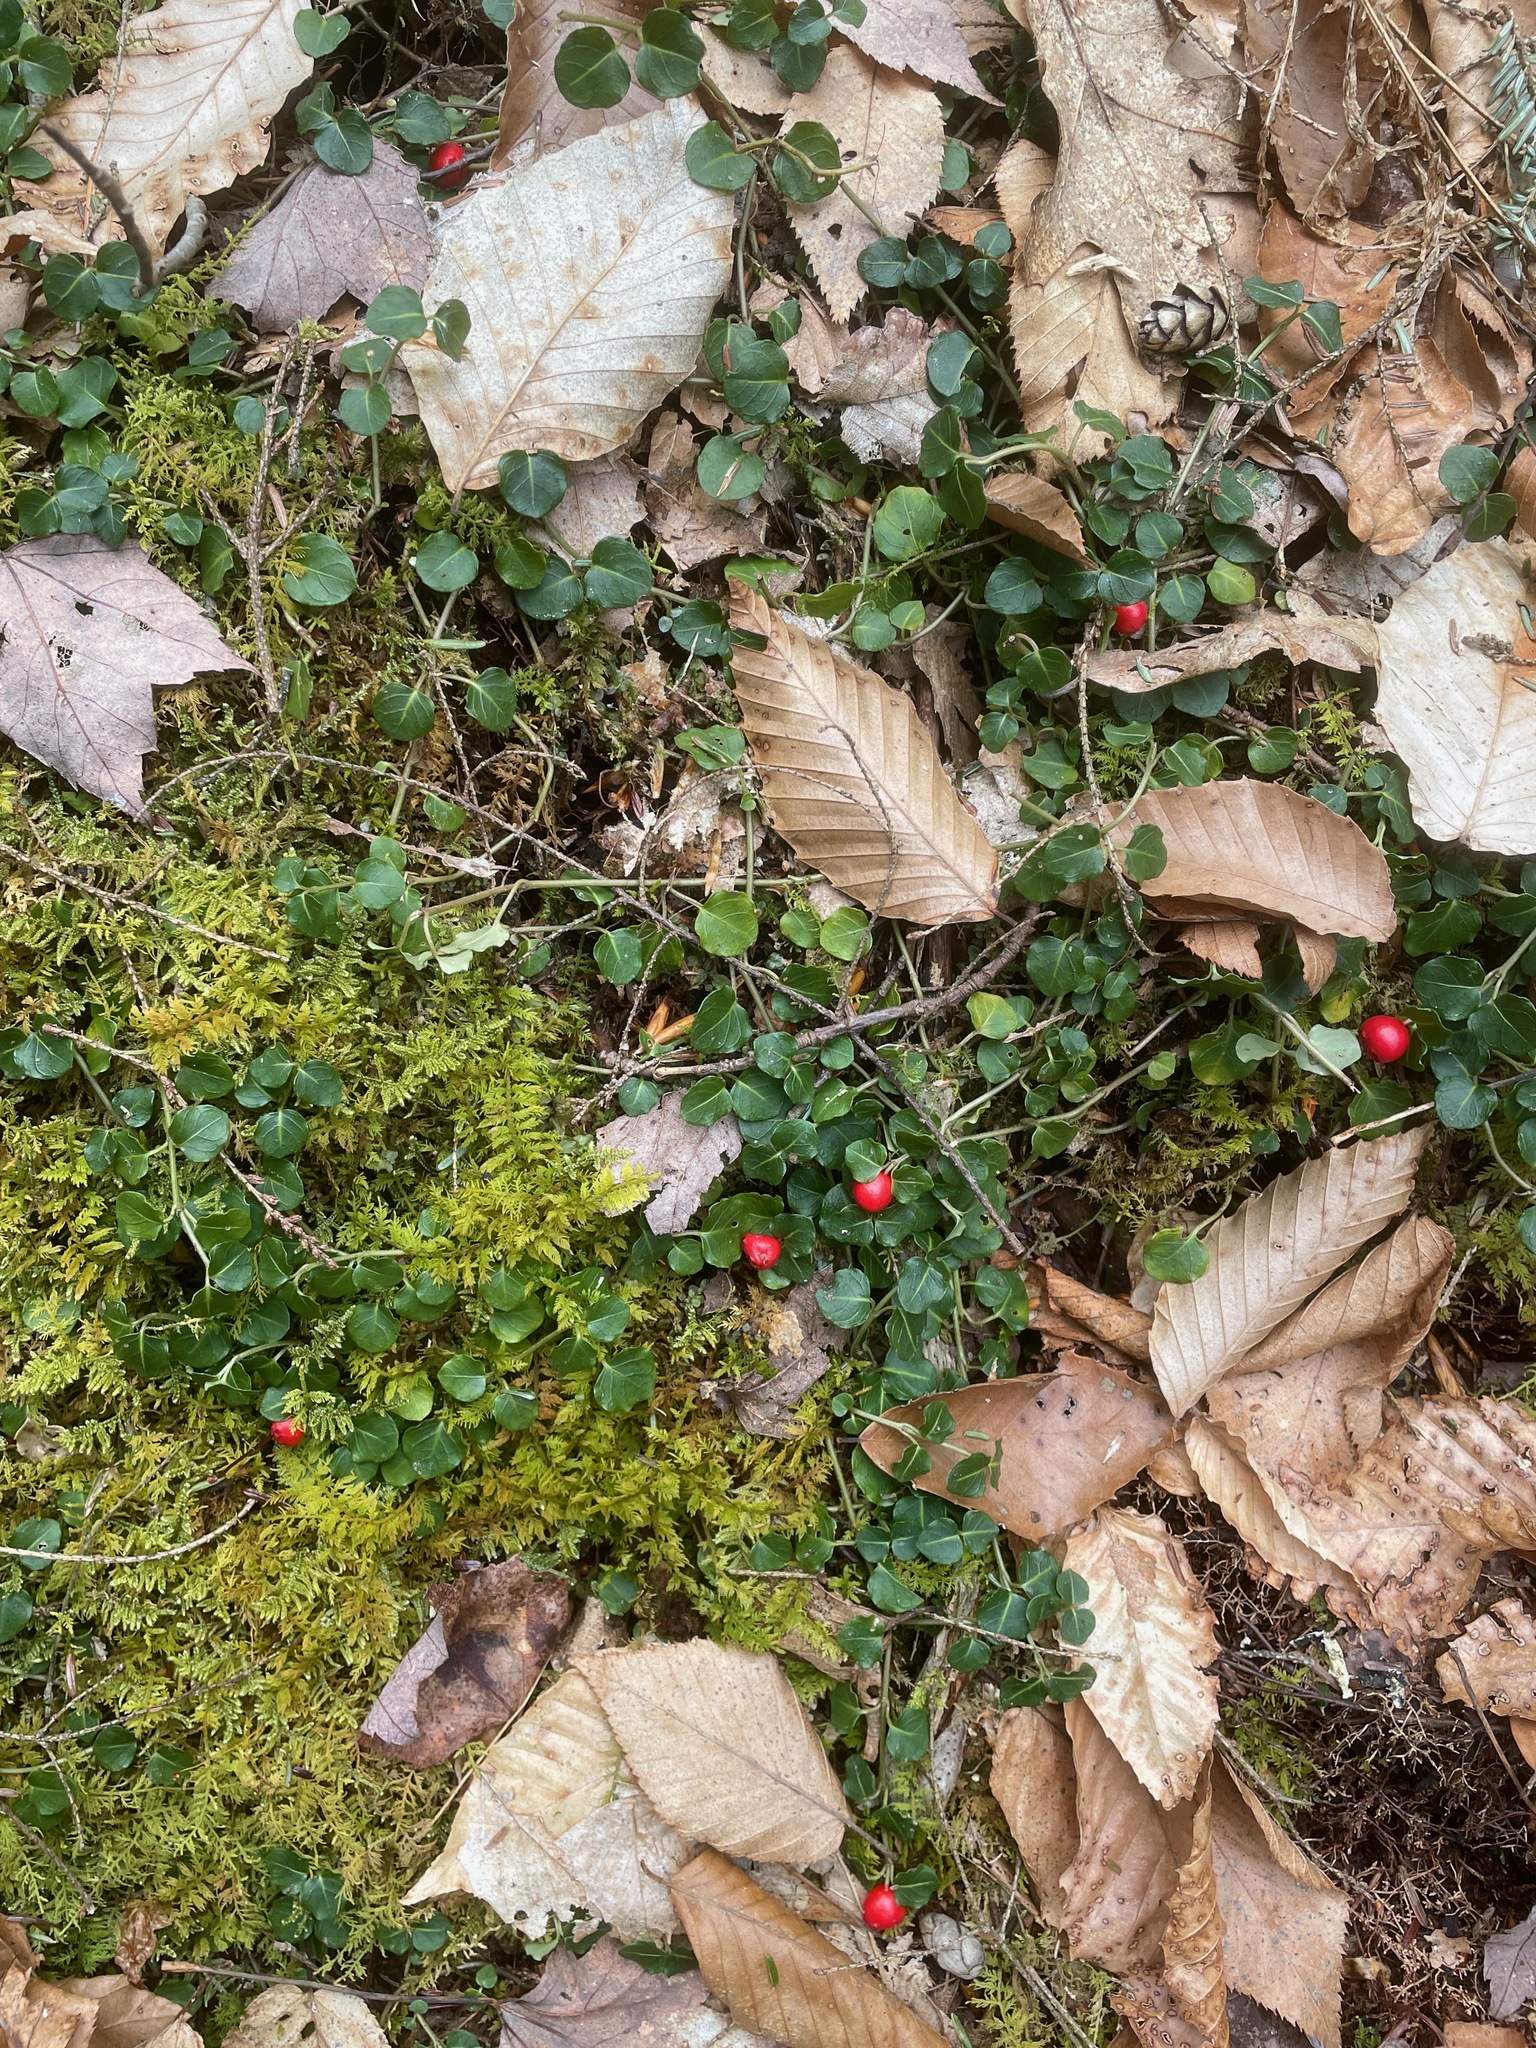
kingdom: Plantae
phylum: Tracheophyta
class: Magnoliopsida
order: Gentianales
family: Rubiaceae
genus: Mitchella
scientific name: Mitchella repens
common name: Partridge-berry
